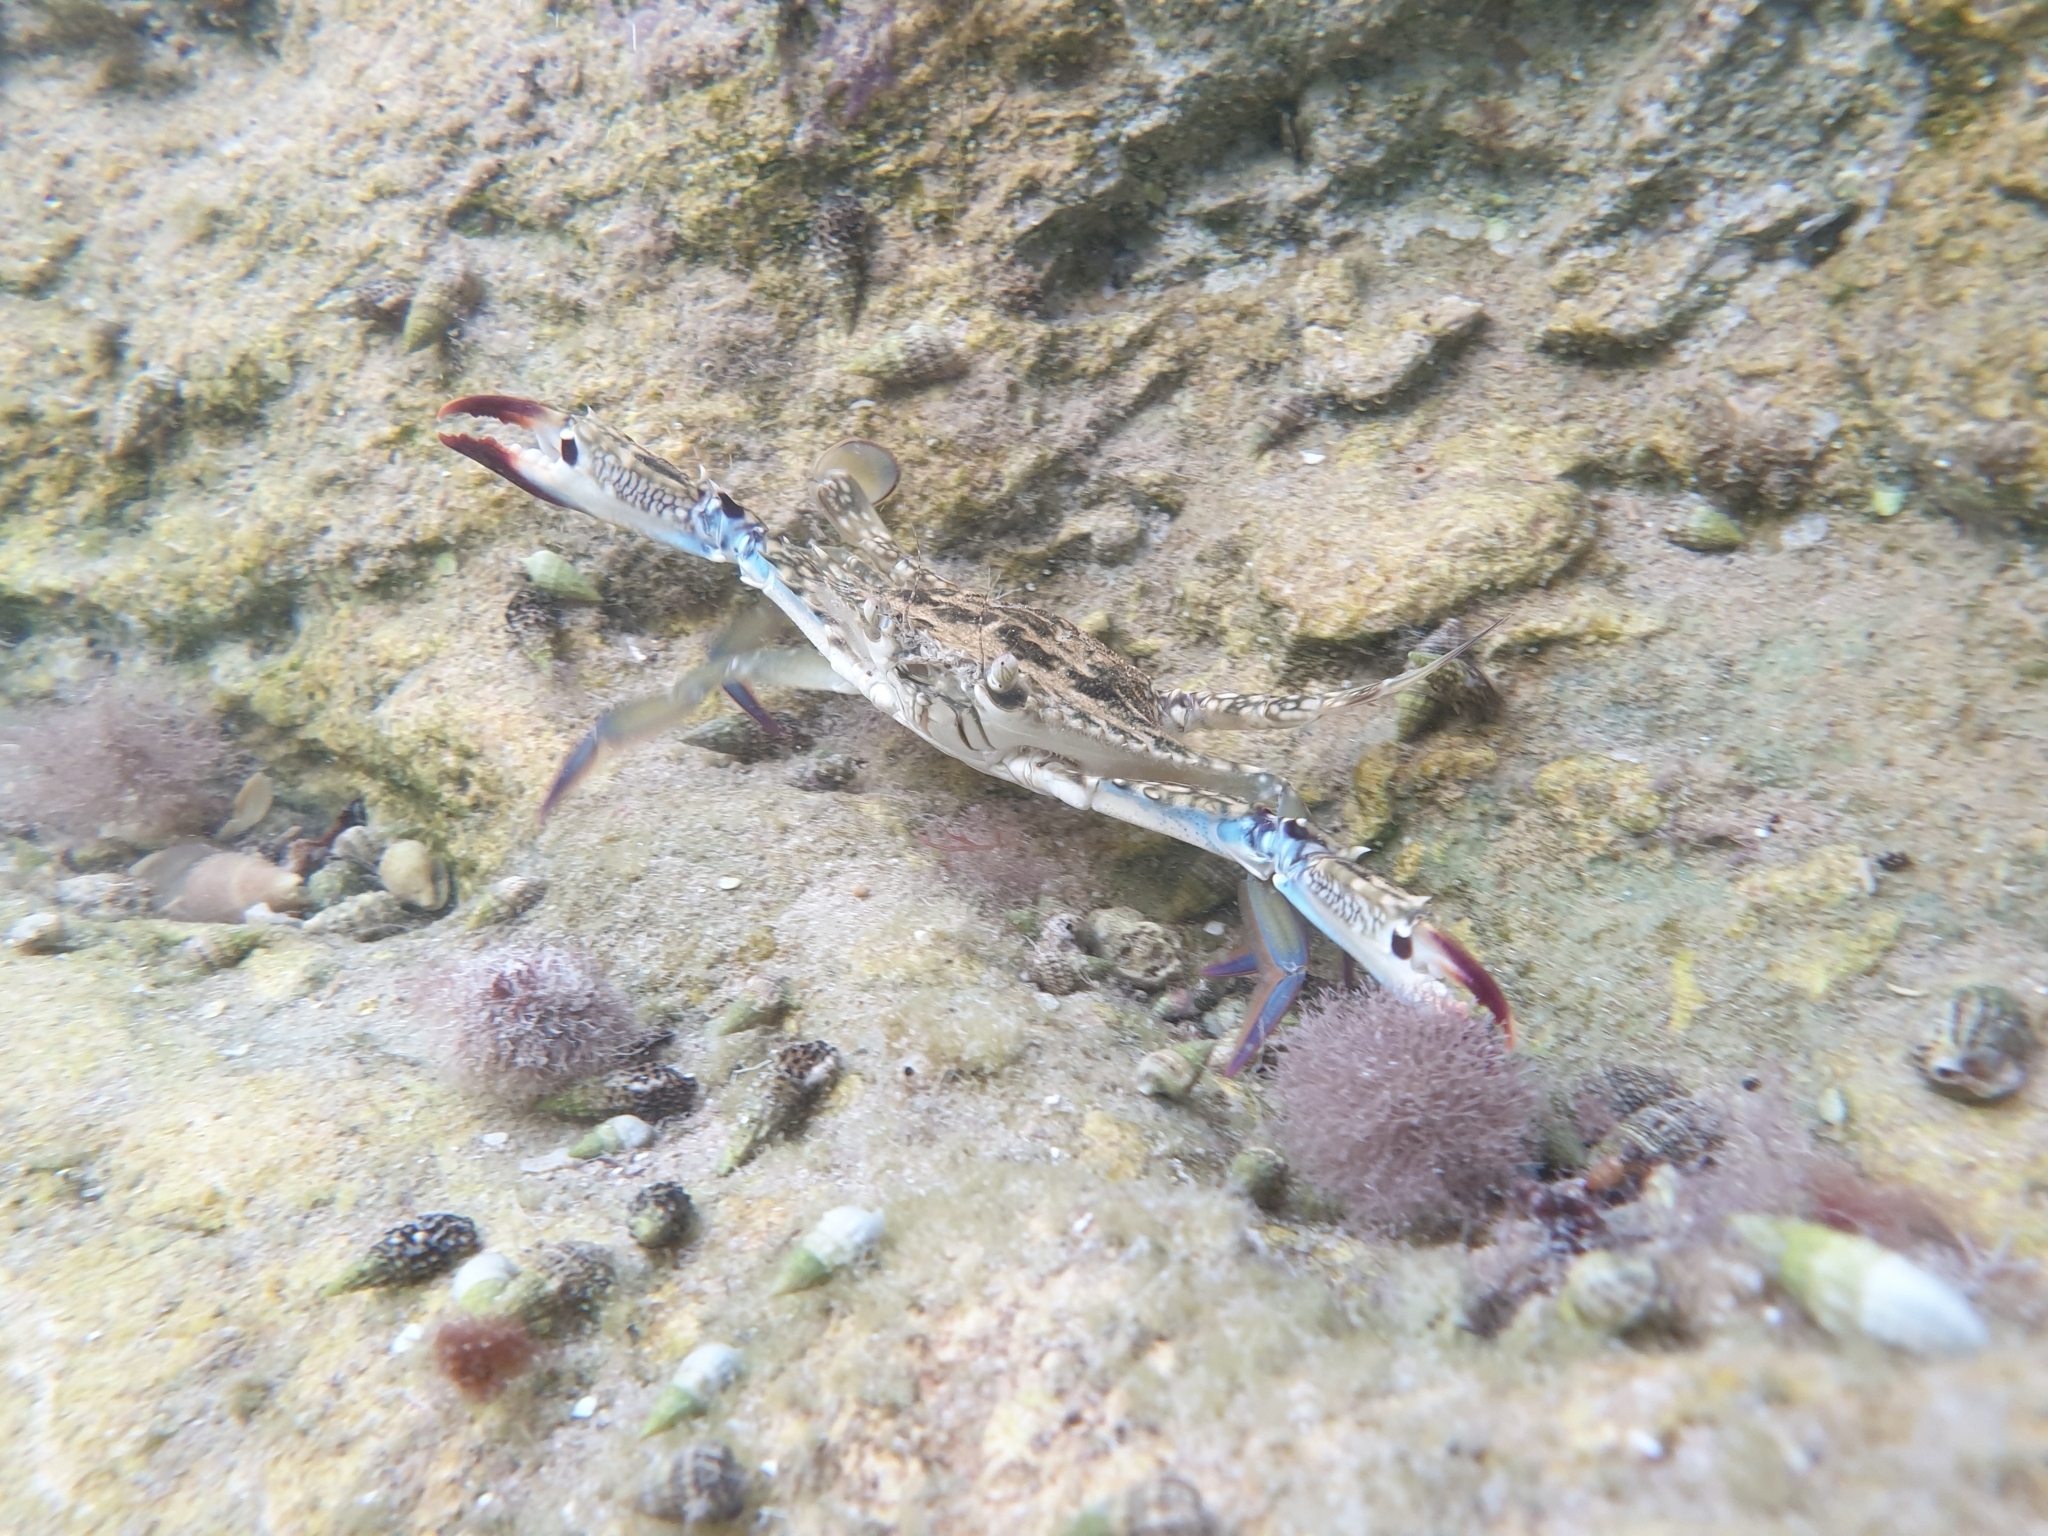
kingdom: Animalia
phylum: Arthropoda
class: Malacostraca
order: Decapoda
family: Portunidae
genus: Portunus
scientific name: Portunus segnis
